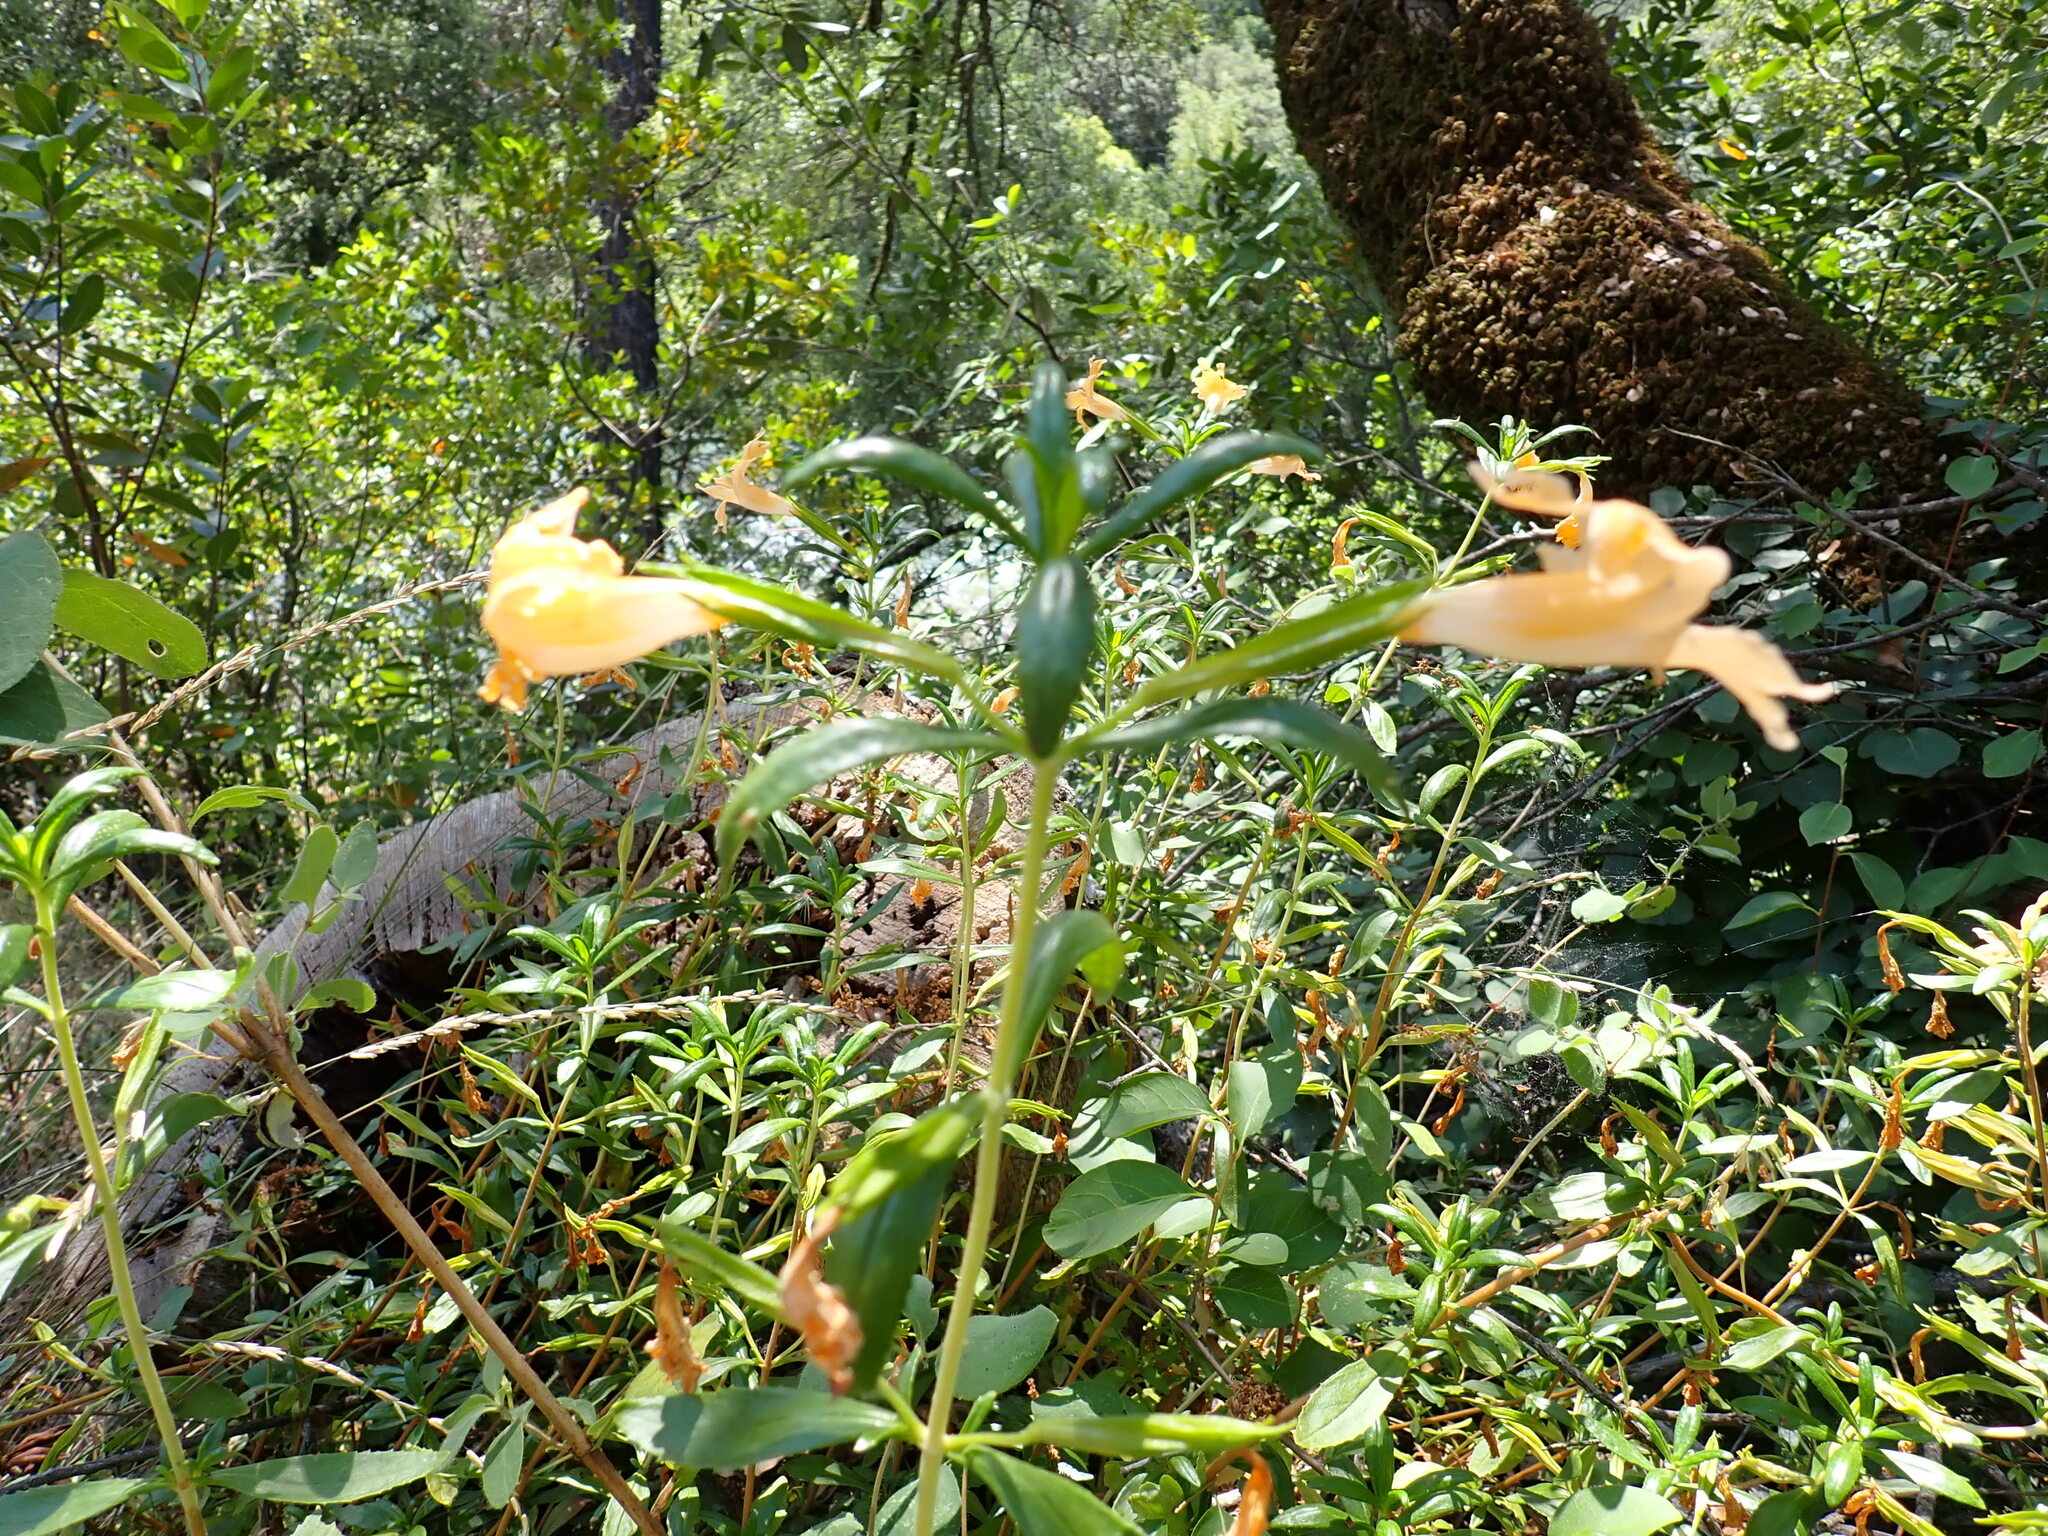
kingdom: Plantae
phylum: Tracheophyta
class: Magnoliopsida
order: Lamiales
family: Phrymaceae
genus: Diplacus
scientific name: Diplacus grandiflorus
